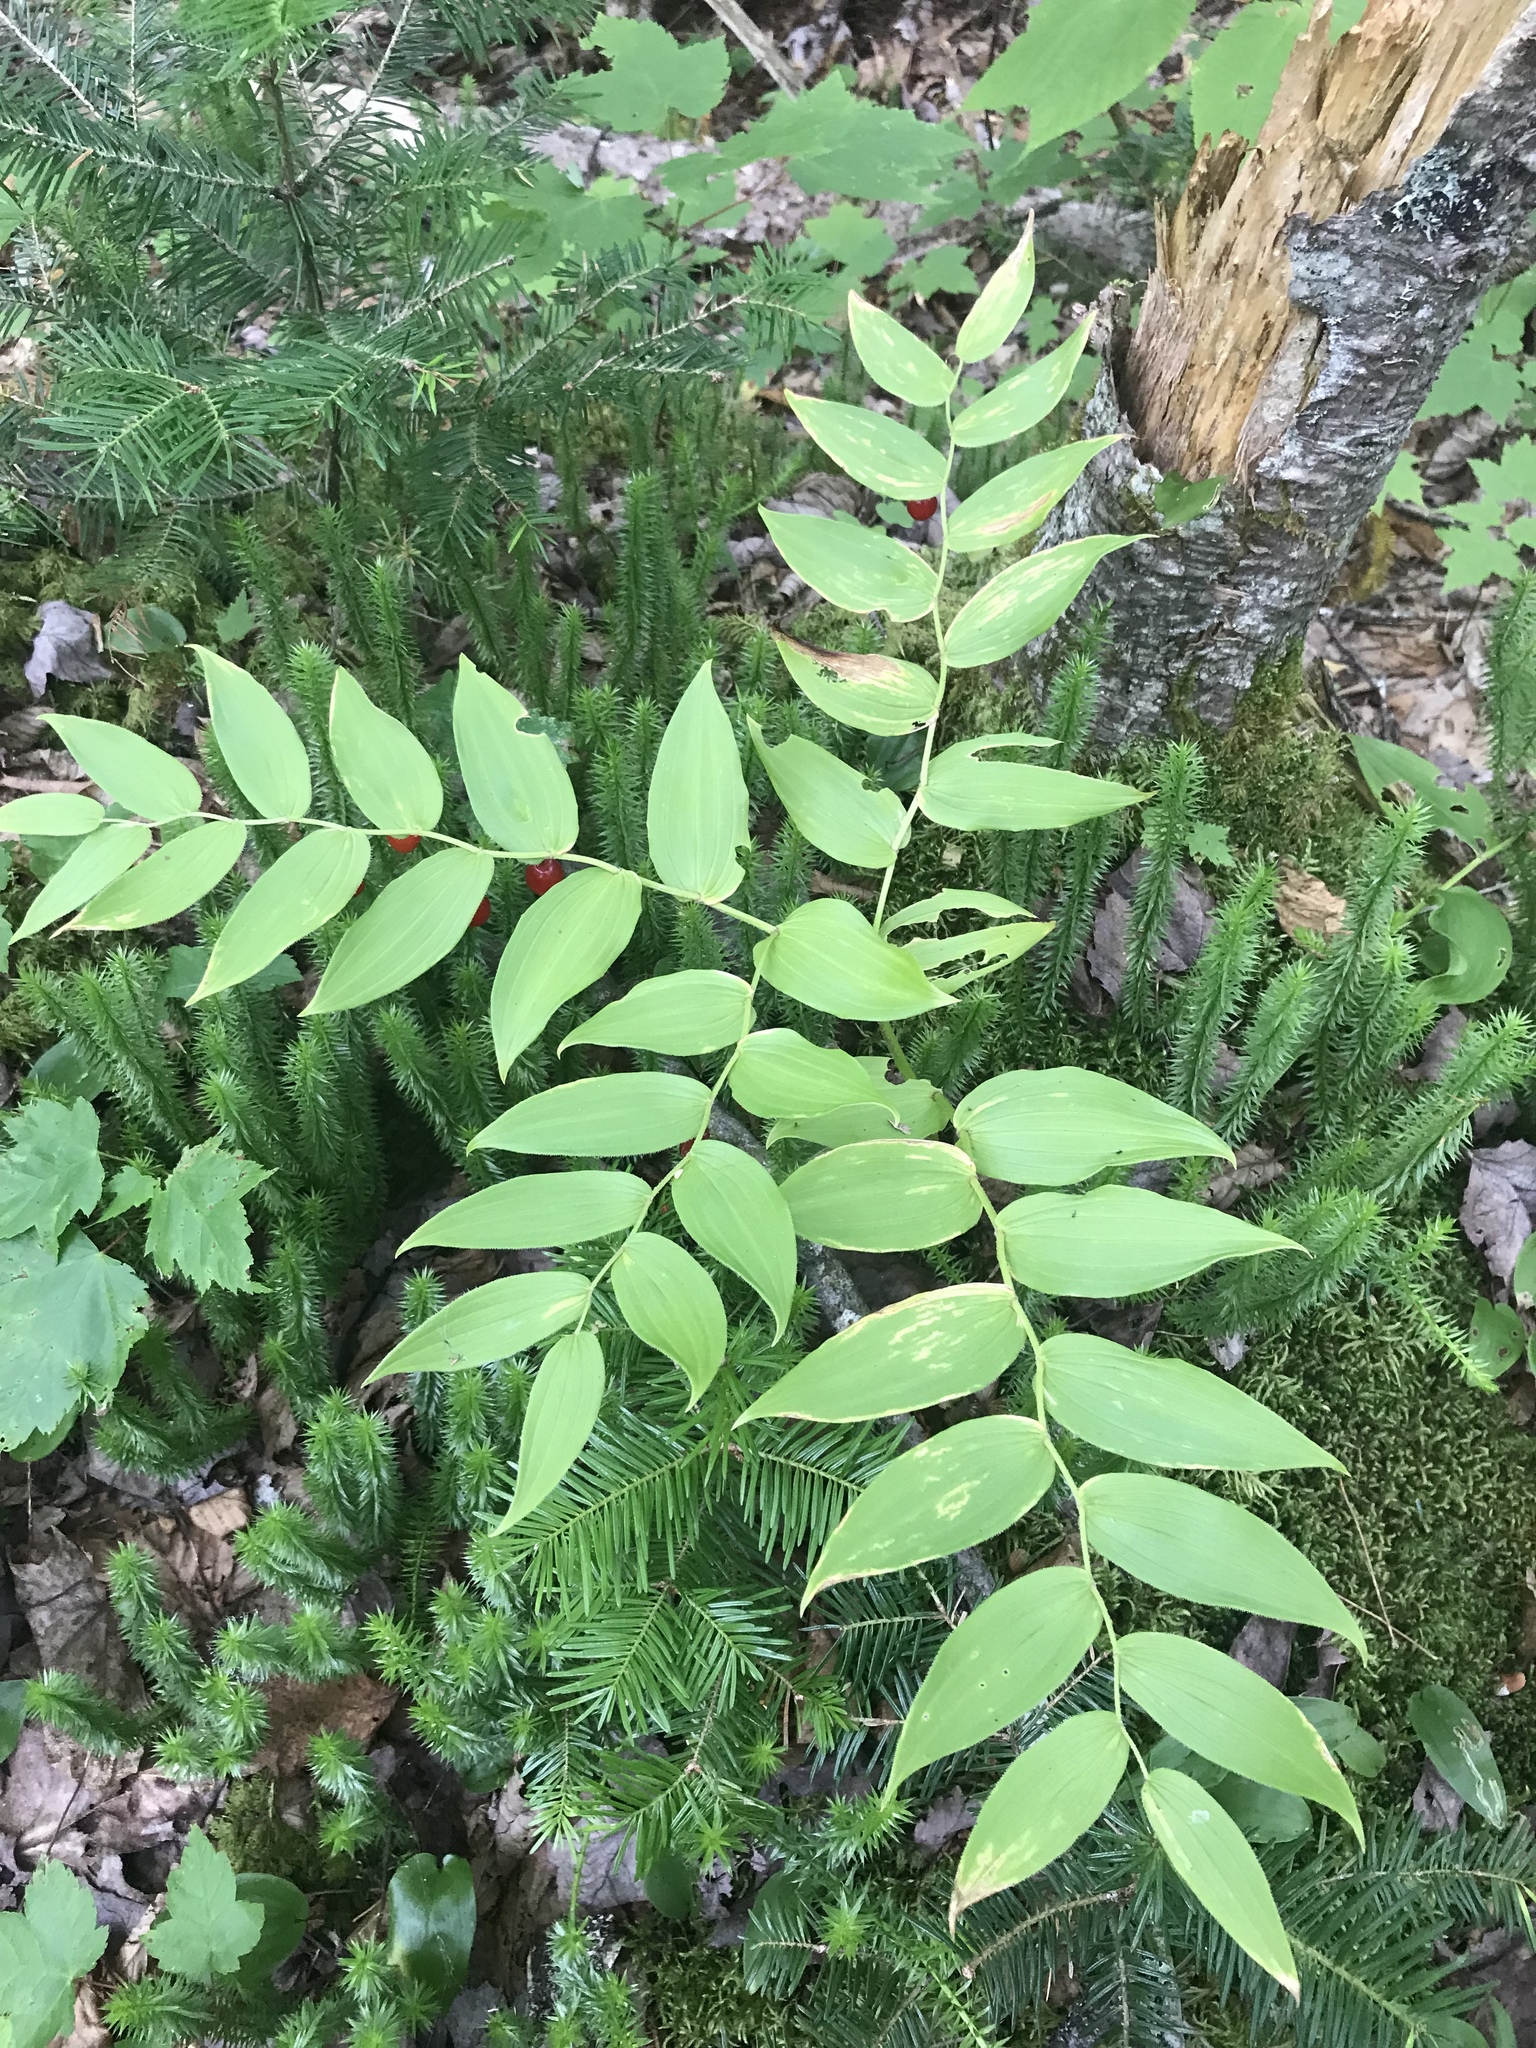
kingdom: Plantae
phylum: Tracheophyta
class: Liliopsida
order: Liliales
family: Liliaceae
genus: Streptopus
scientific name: Streptopus lanceolatus
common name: Rose mandarin
